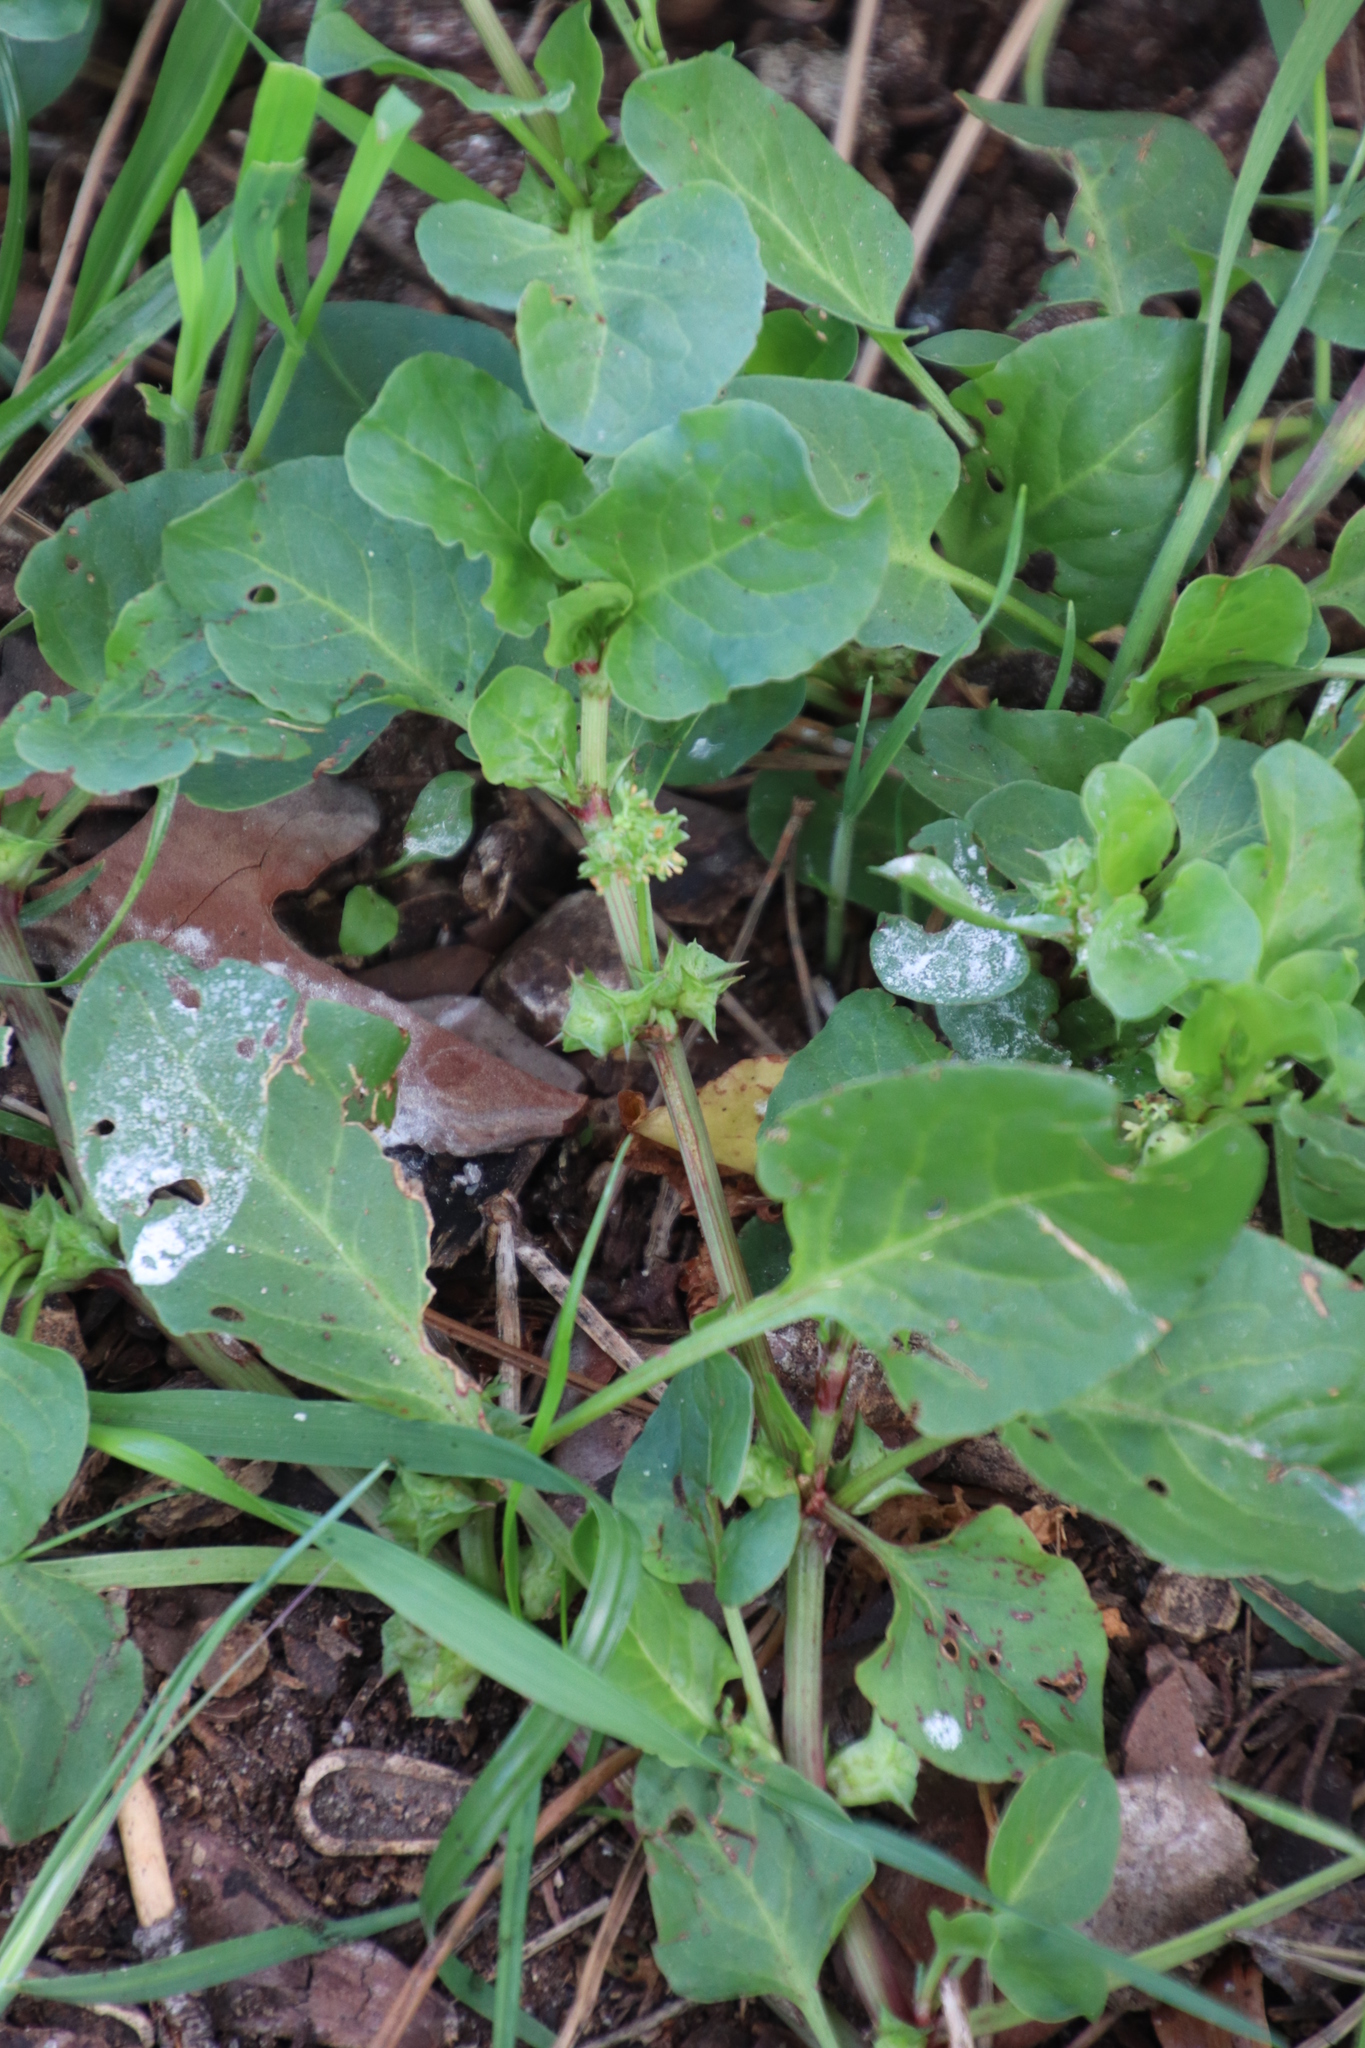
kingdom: Plantae
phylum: Tracheophyta
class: Magnoliopsida
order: Caryophyllales
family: Polygonaceae
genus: Rumex
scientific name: Rumex hypogaeus
